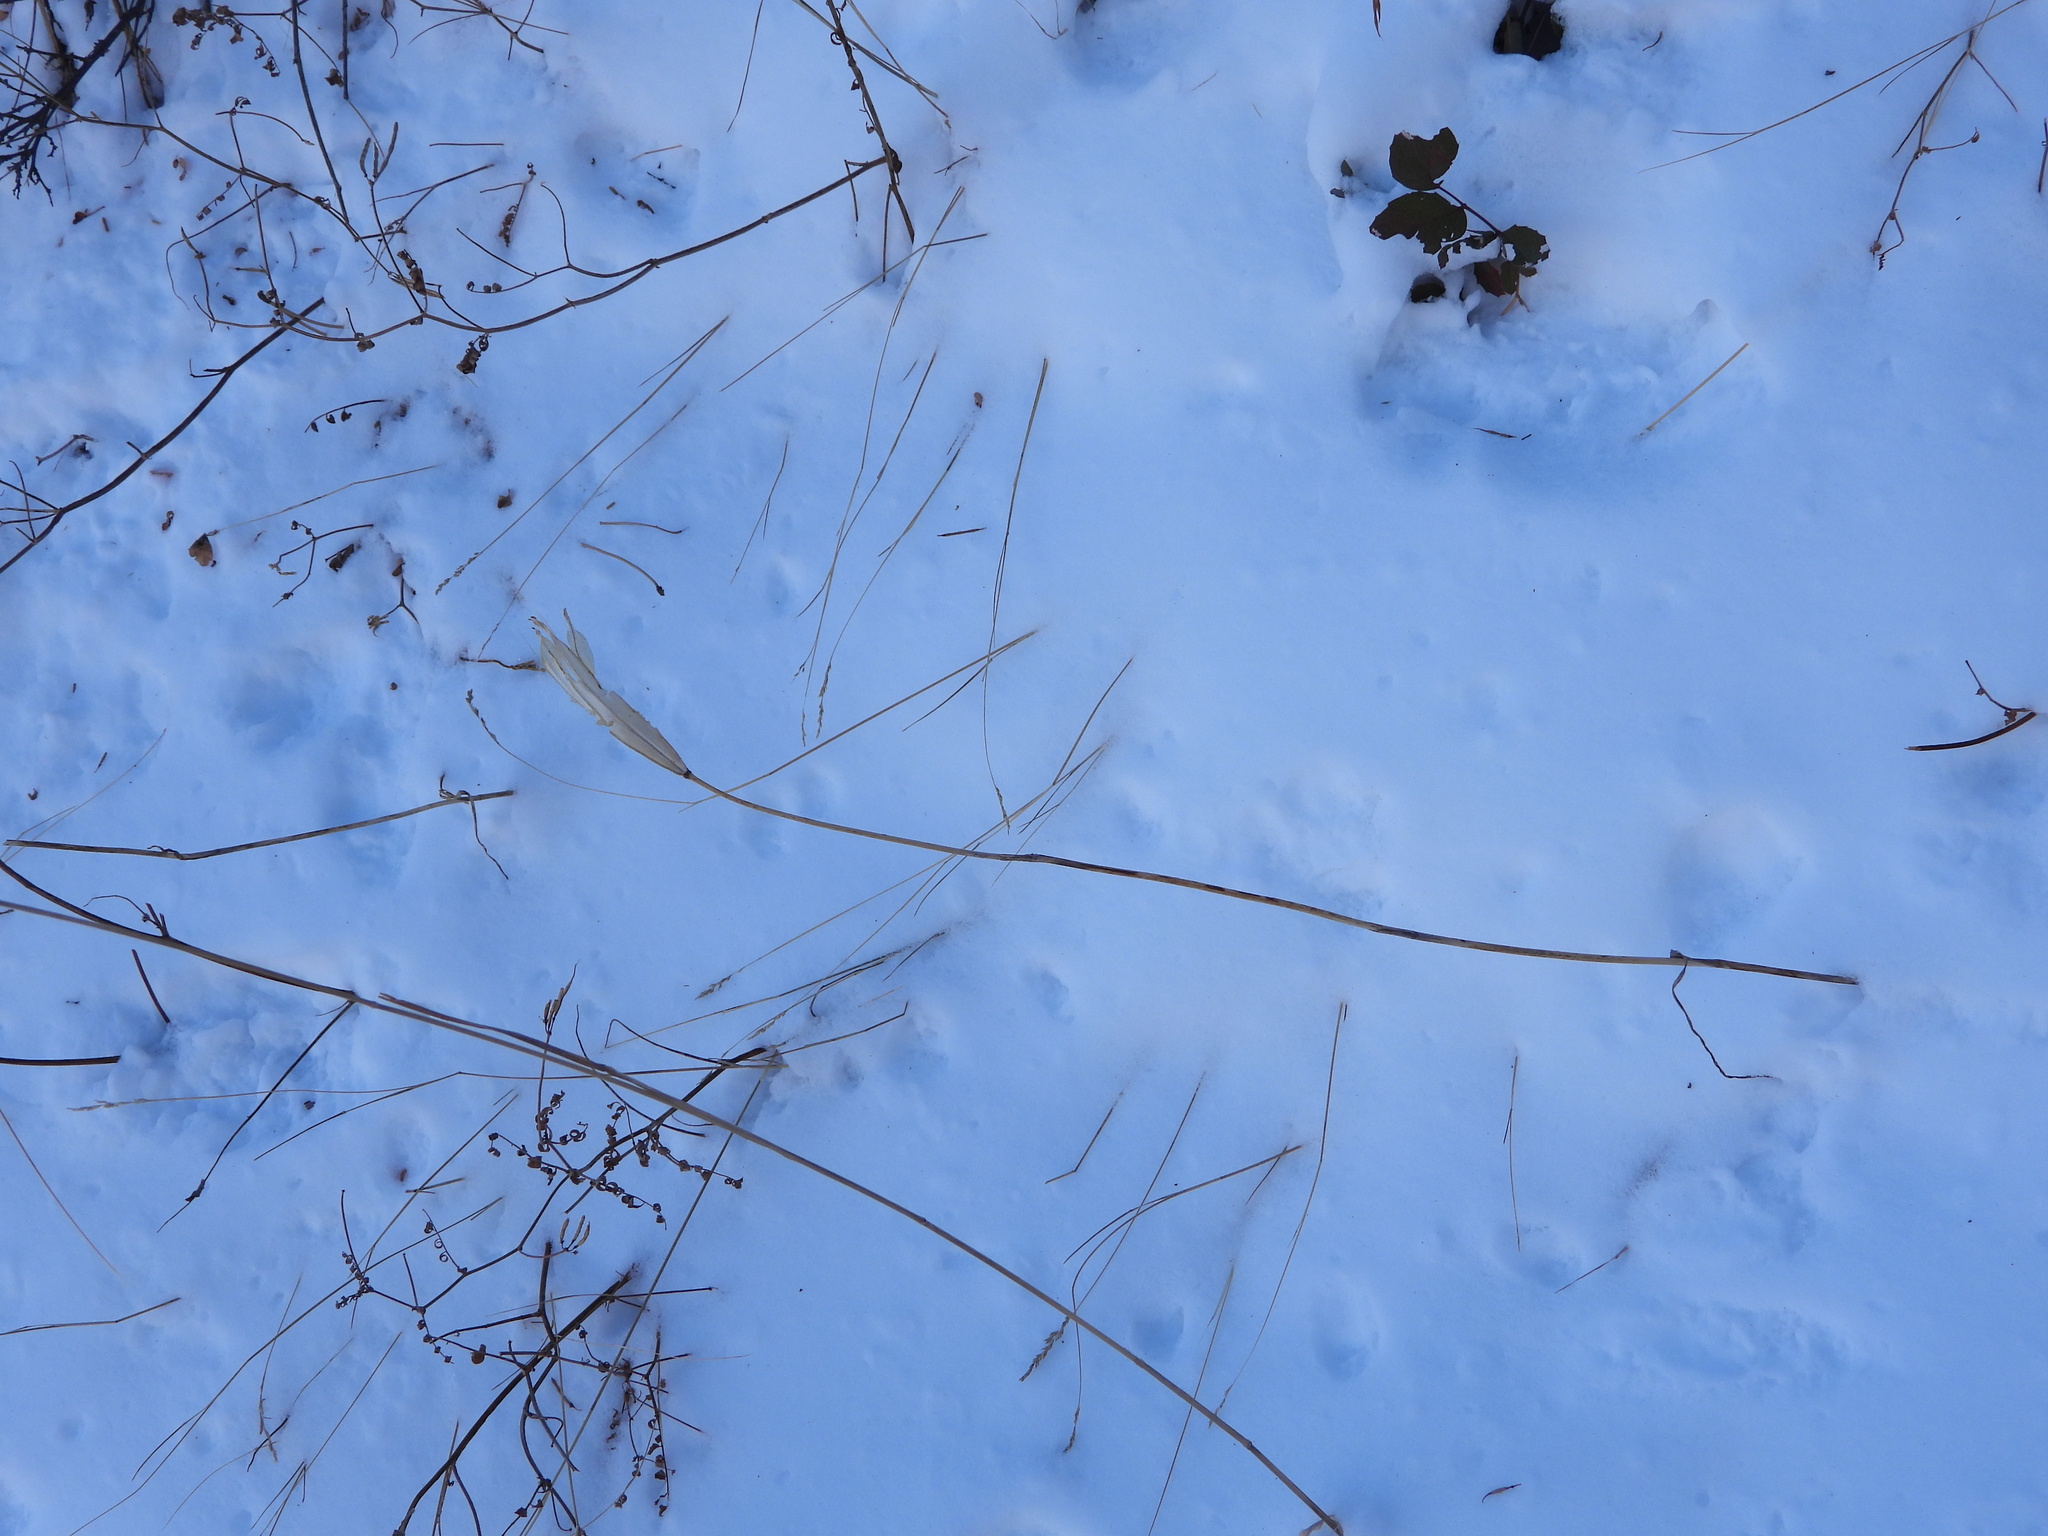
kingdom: Plantae
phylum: Tracheophyta
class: Liliopsida
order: Liliales
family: Liliaceae
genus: Calochortus
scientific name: Calochortus gunnisonii
